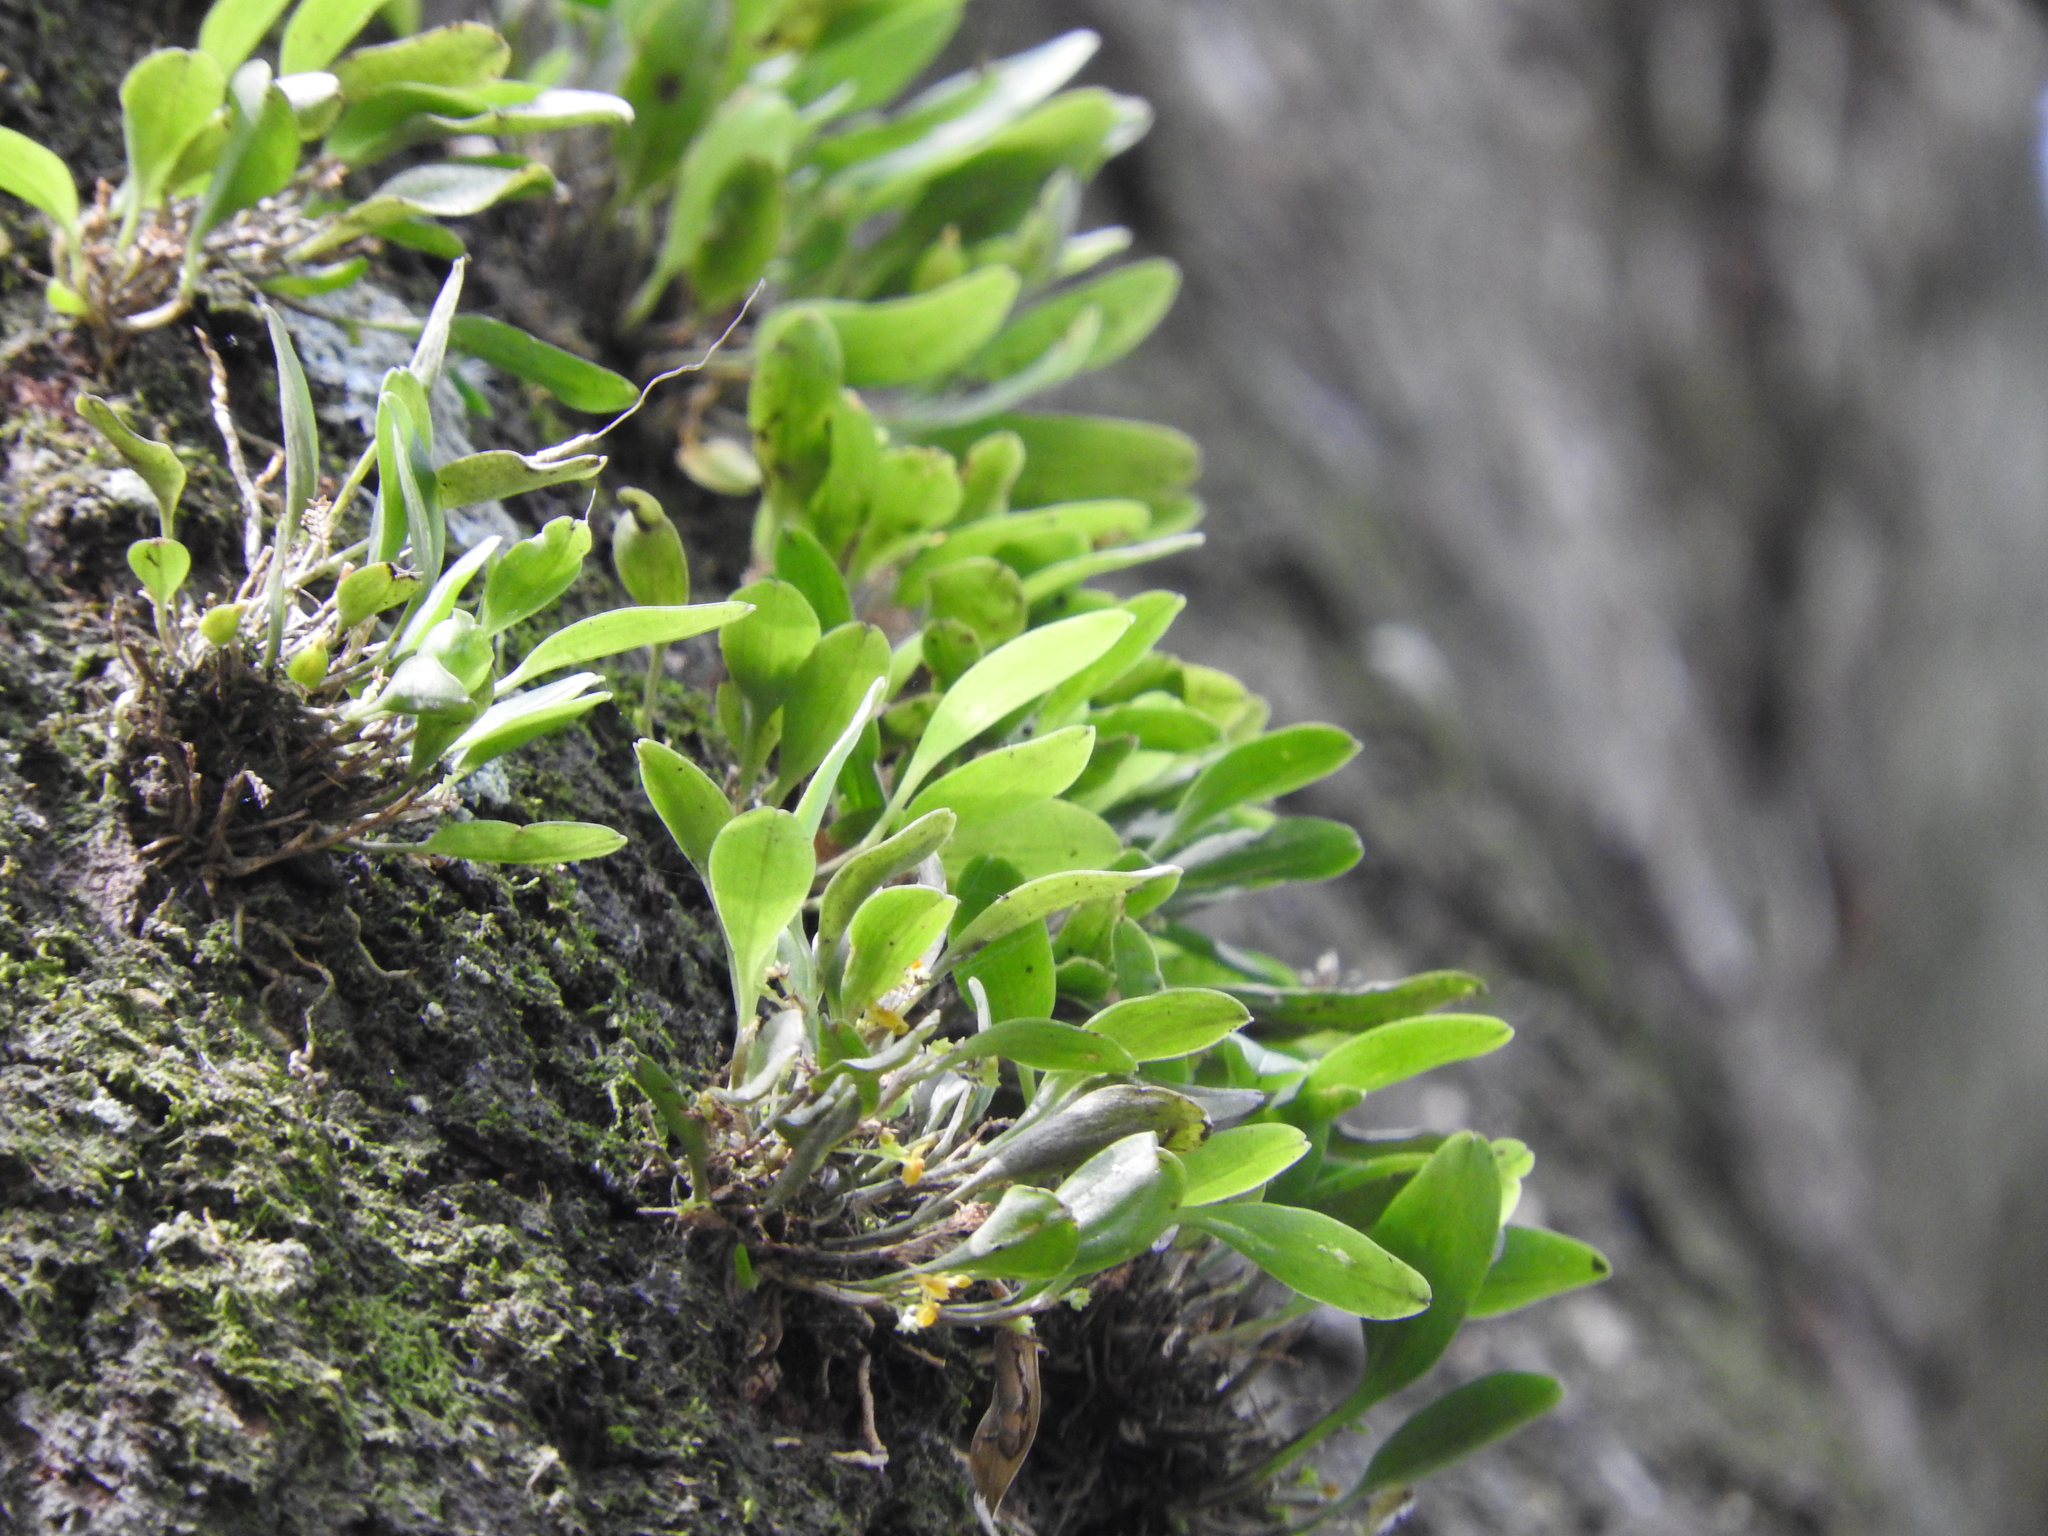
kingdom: Plantae
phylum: Tracheophyta
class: Liliopsida
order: Asparagales
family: Orchidaceae
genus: Platystele
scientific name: Platystele stenostachya
